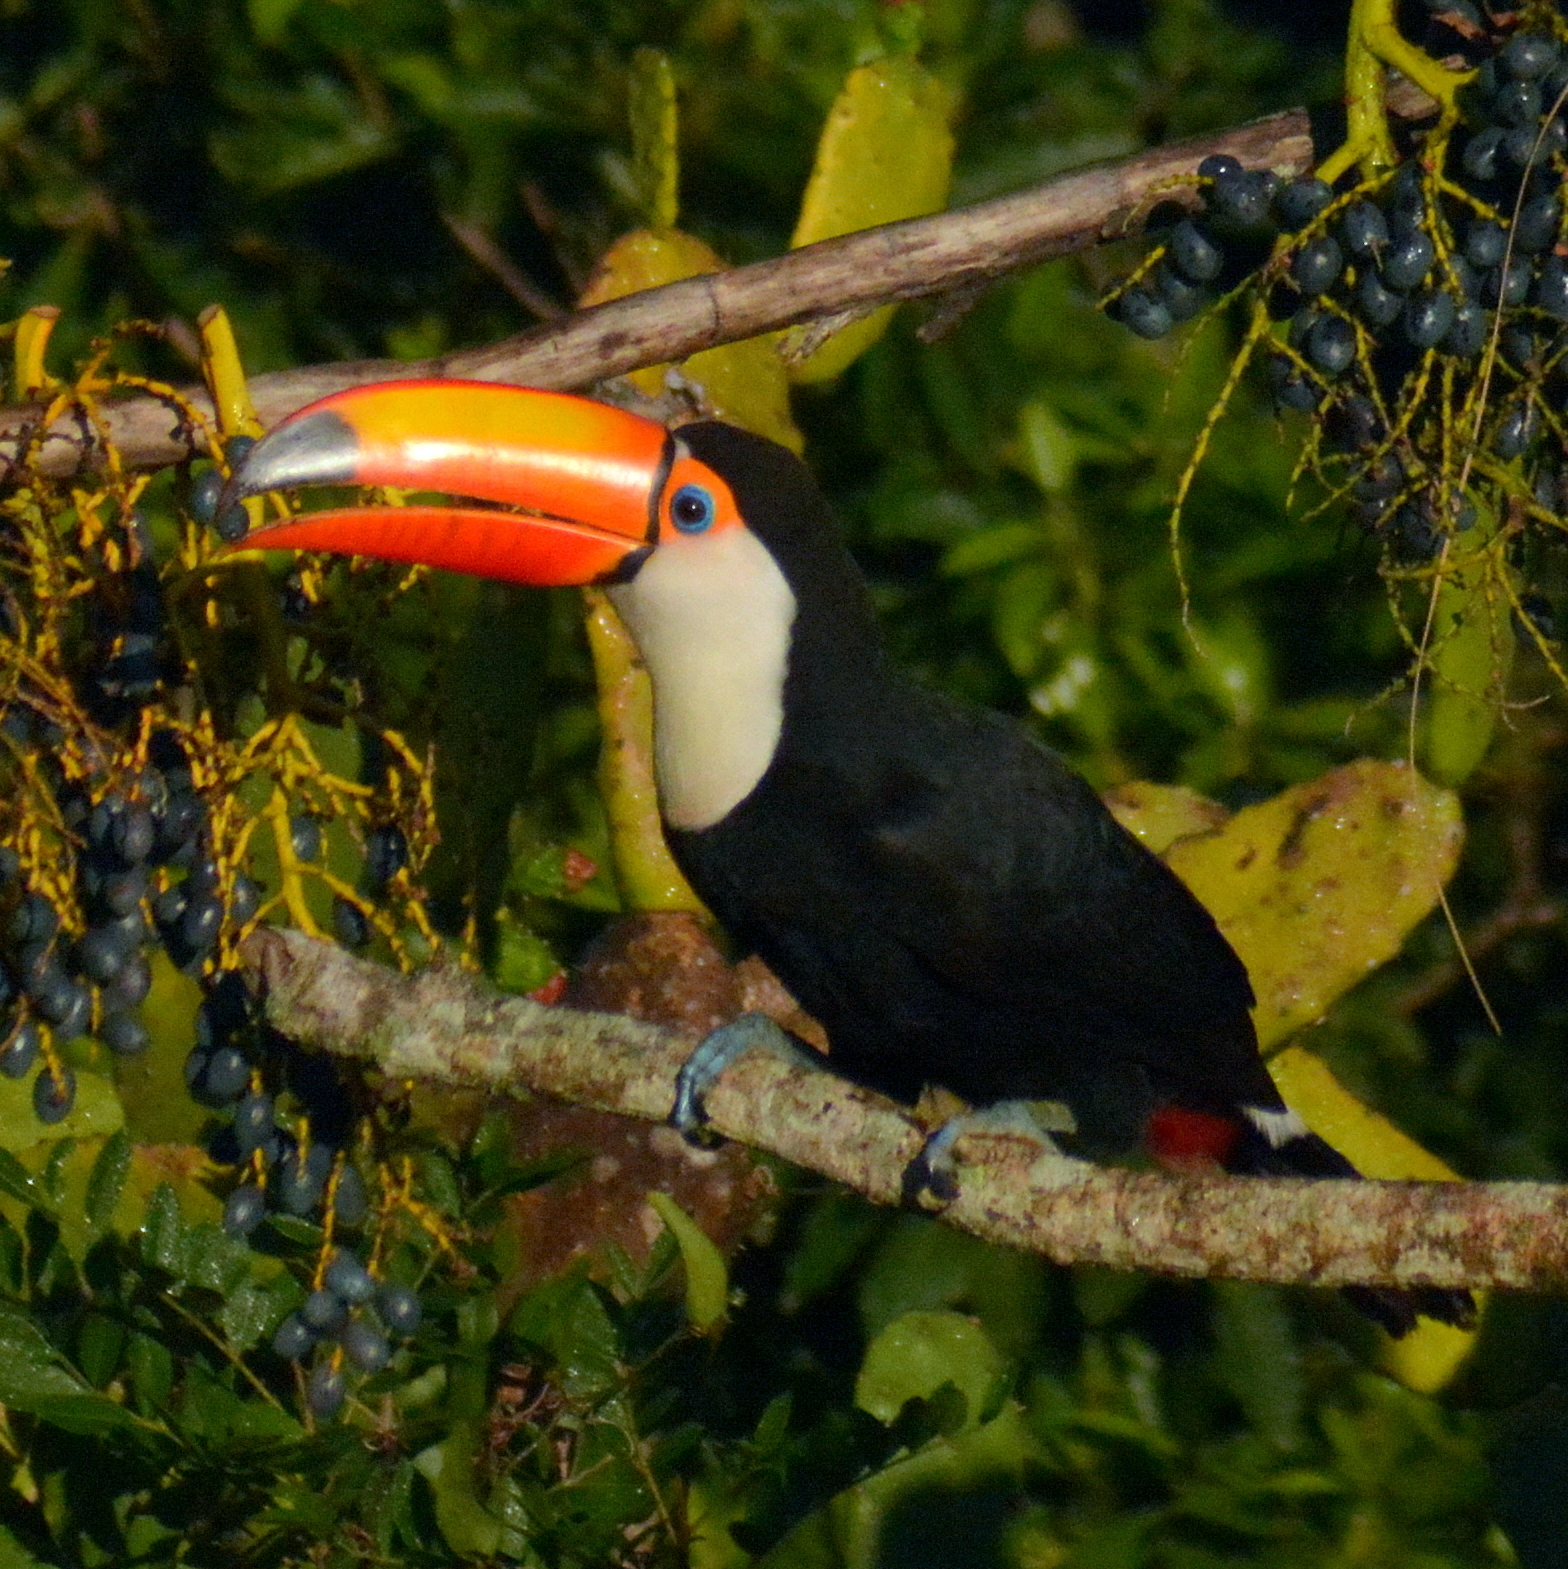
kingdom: Animalia
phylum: Chordata
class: Aves
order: Piciformes
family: Ramphastidae
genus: Ramphastos
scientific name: Ramphastos toco
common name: Toco toucan
